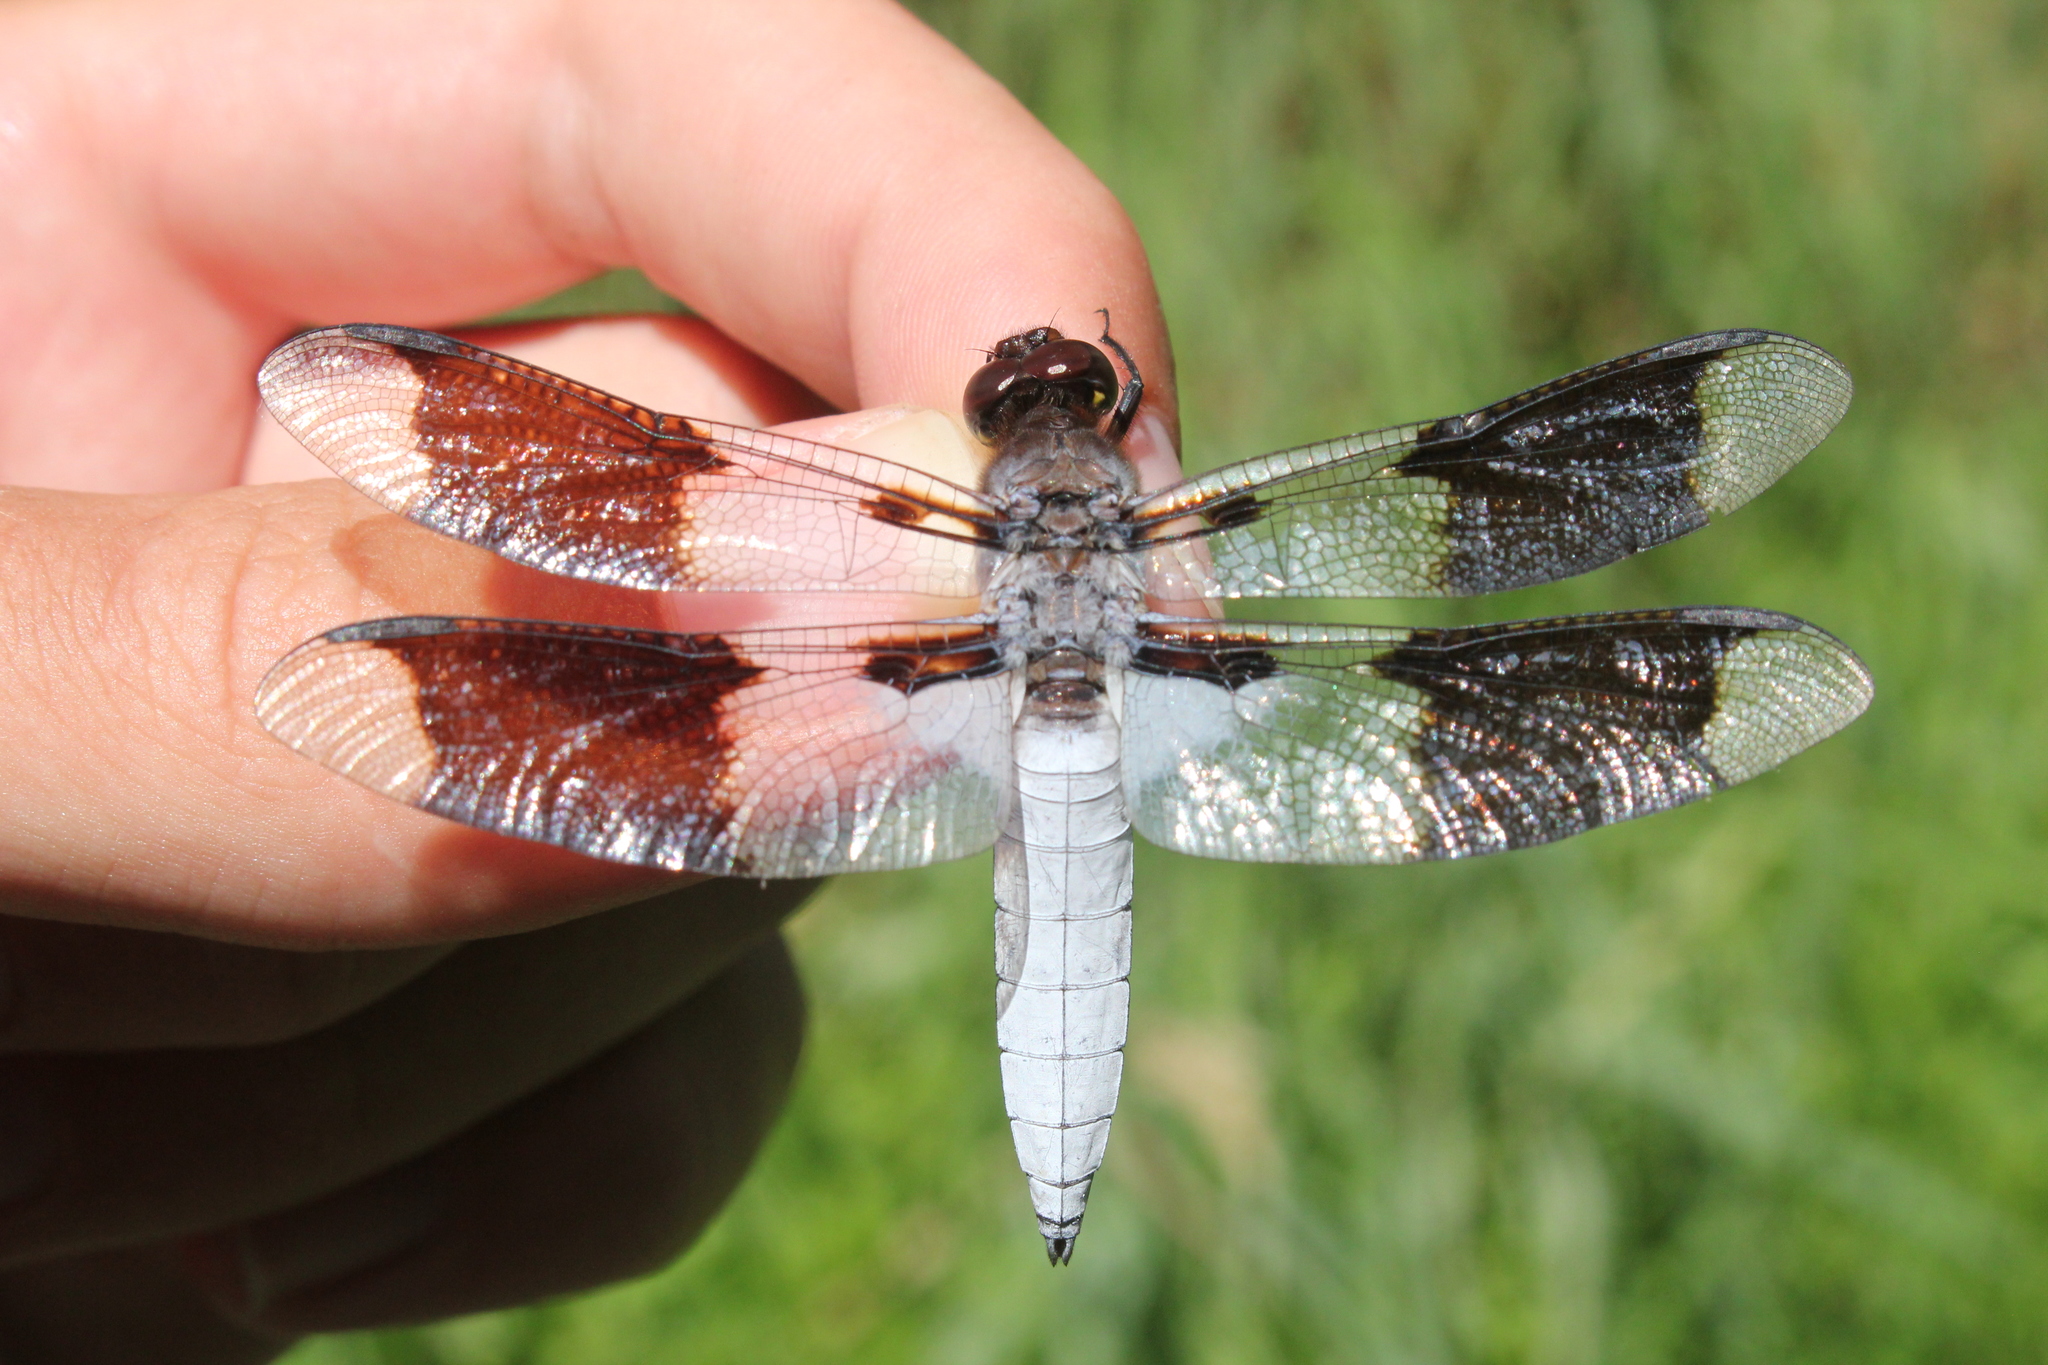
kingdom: Animalia
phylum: Arthropoda
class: Insecta
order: Odonata
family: Libellulidae
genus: Plathemis
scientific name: Plathemis lydia
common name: Common whitetail
